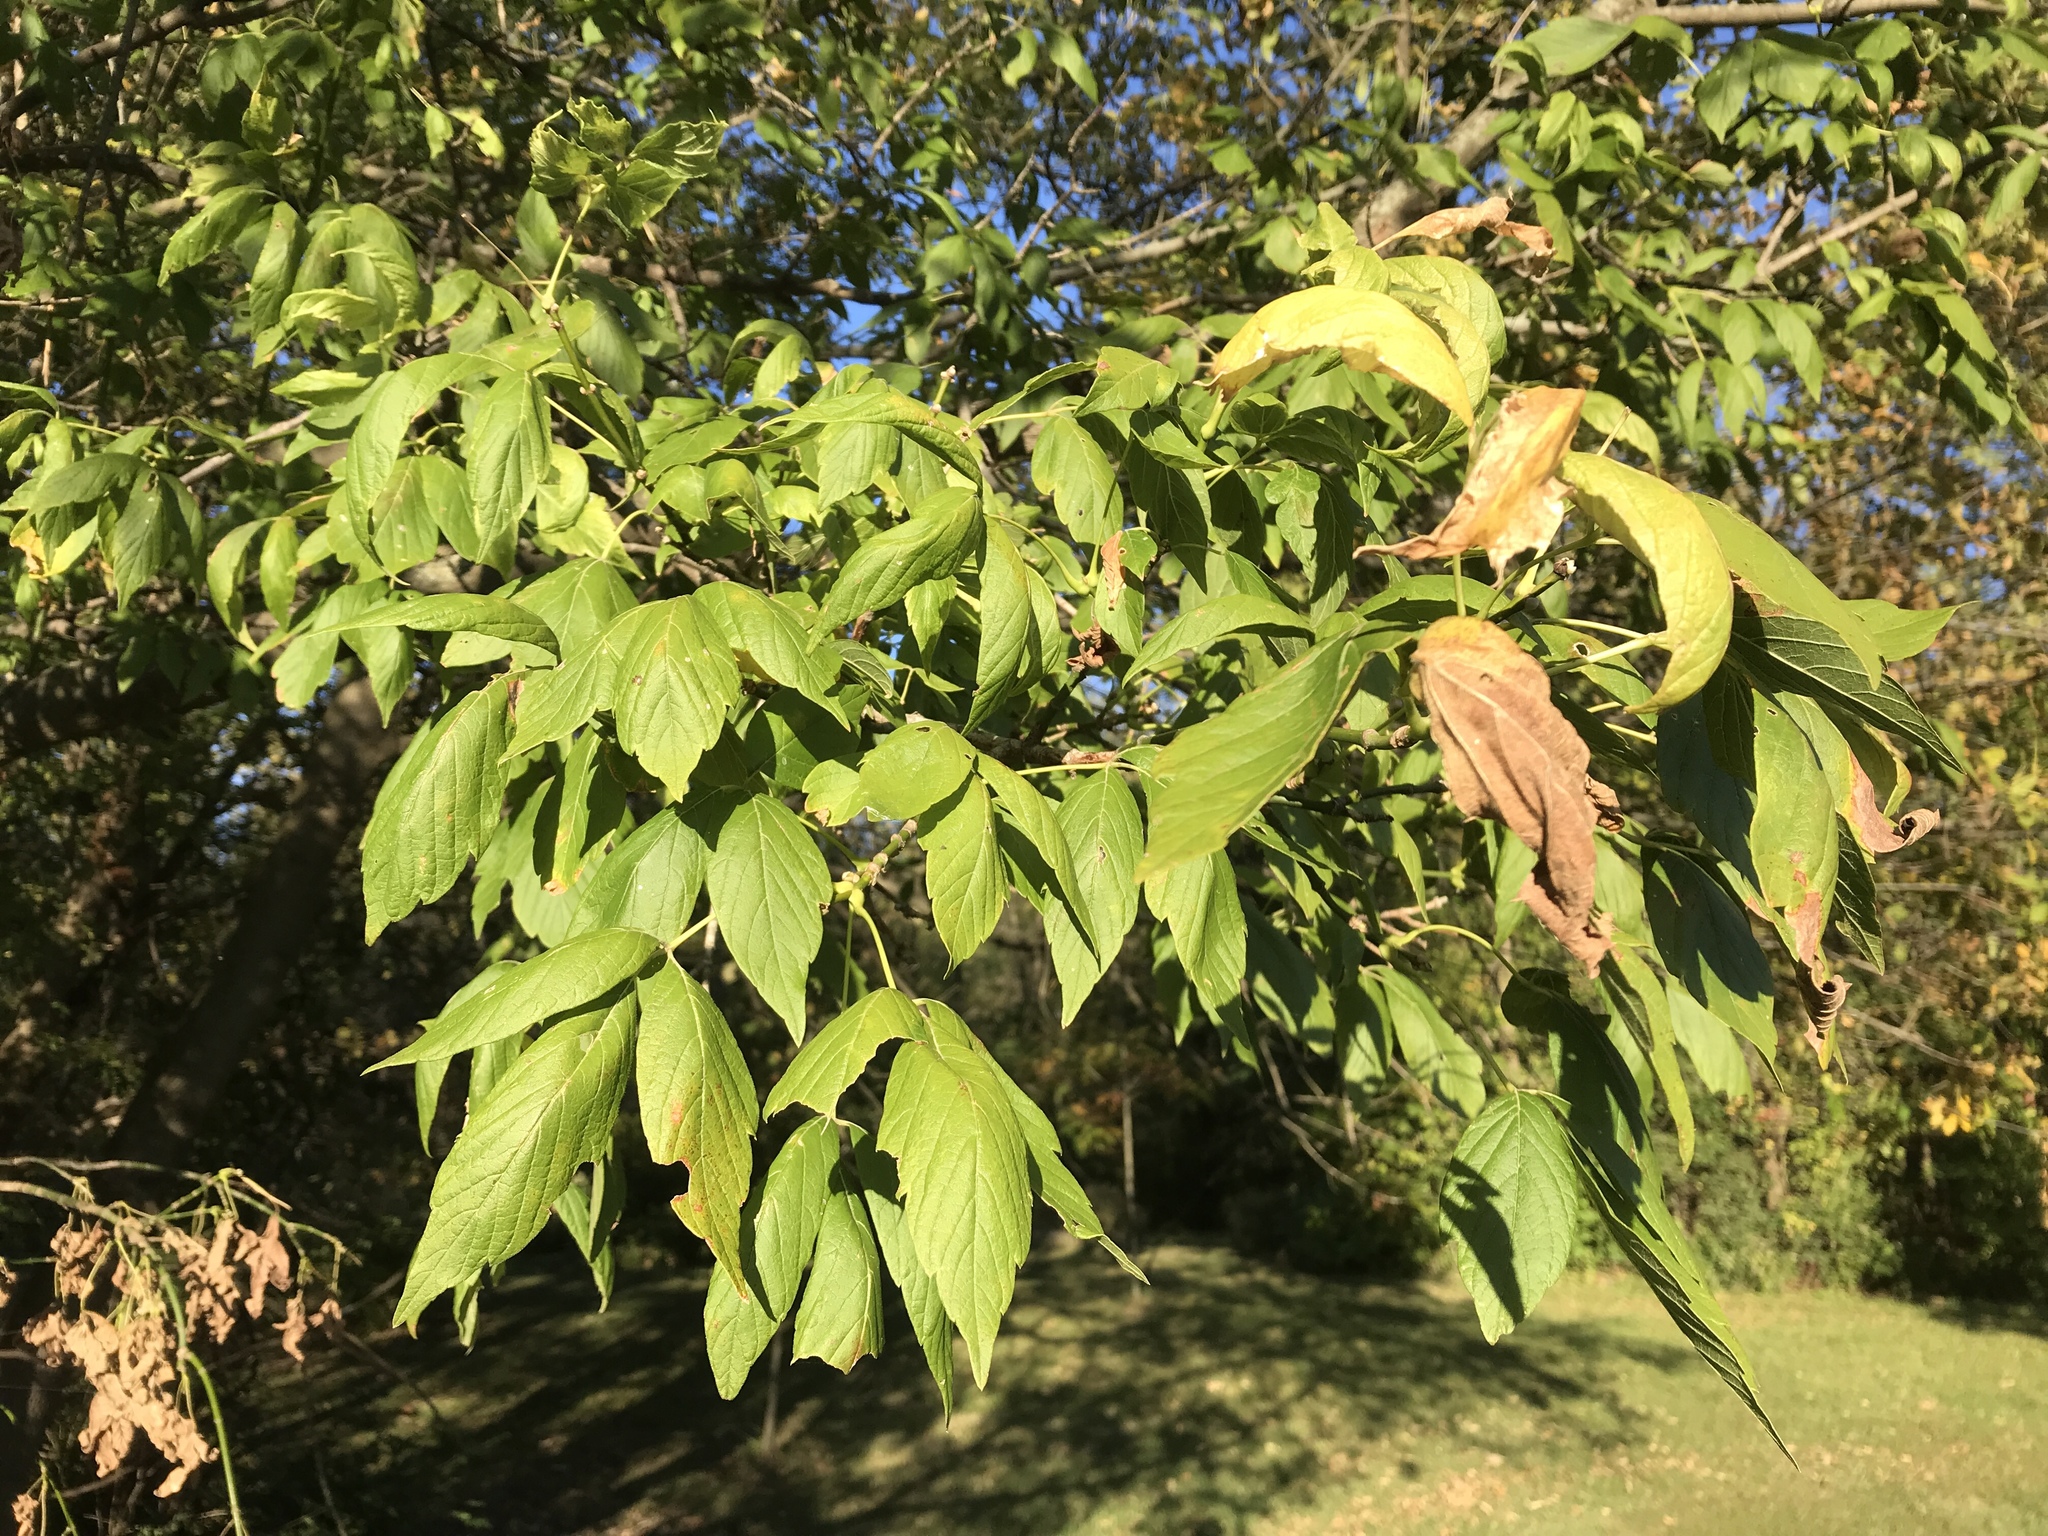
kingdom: Plantae
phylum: Tracheophyta
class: Magnoliopsida
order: Sapindales
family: Sapindaceae
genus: Acer
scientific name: Acer negundo
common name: Ashleaf maple
